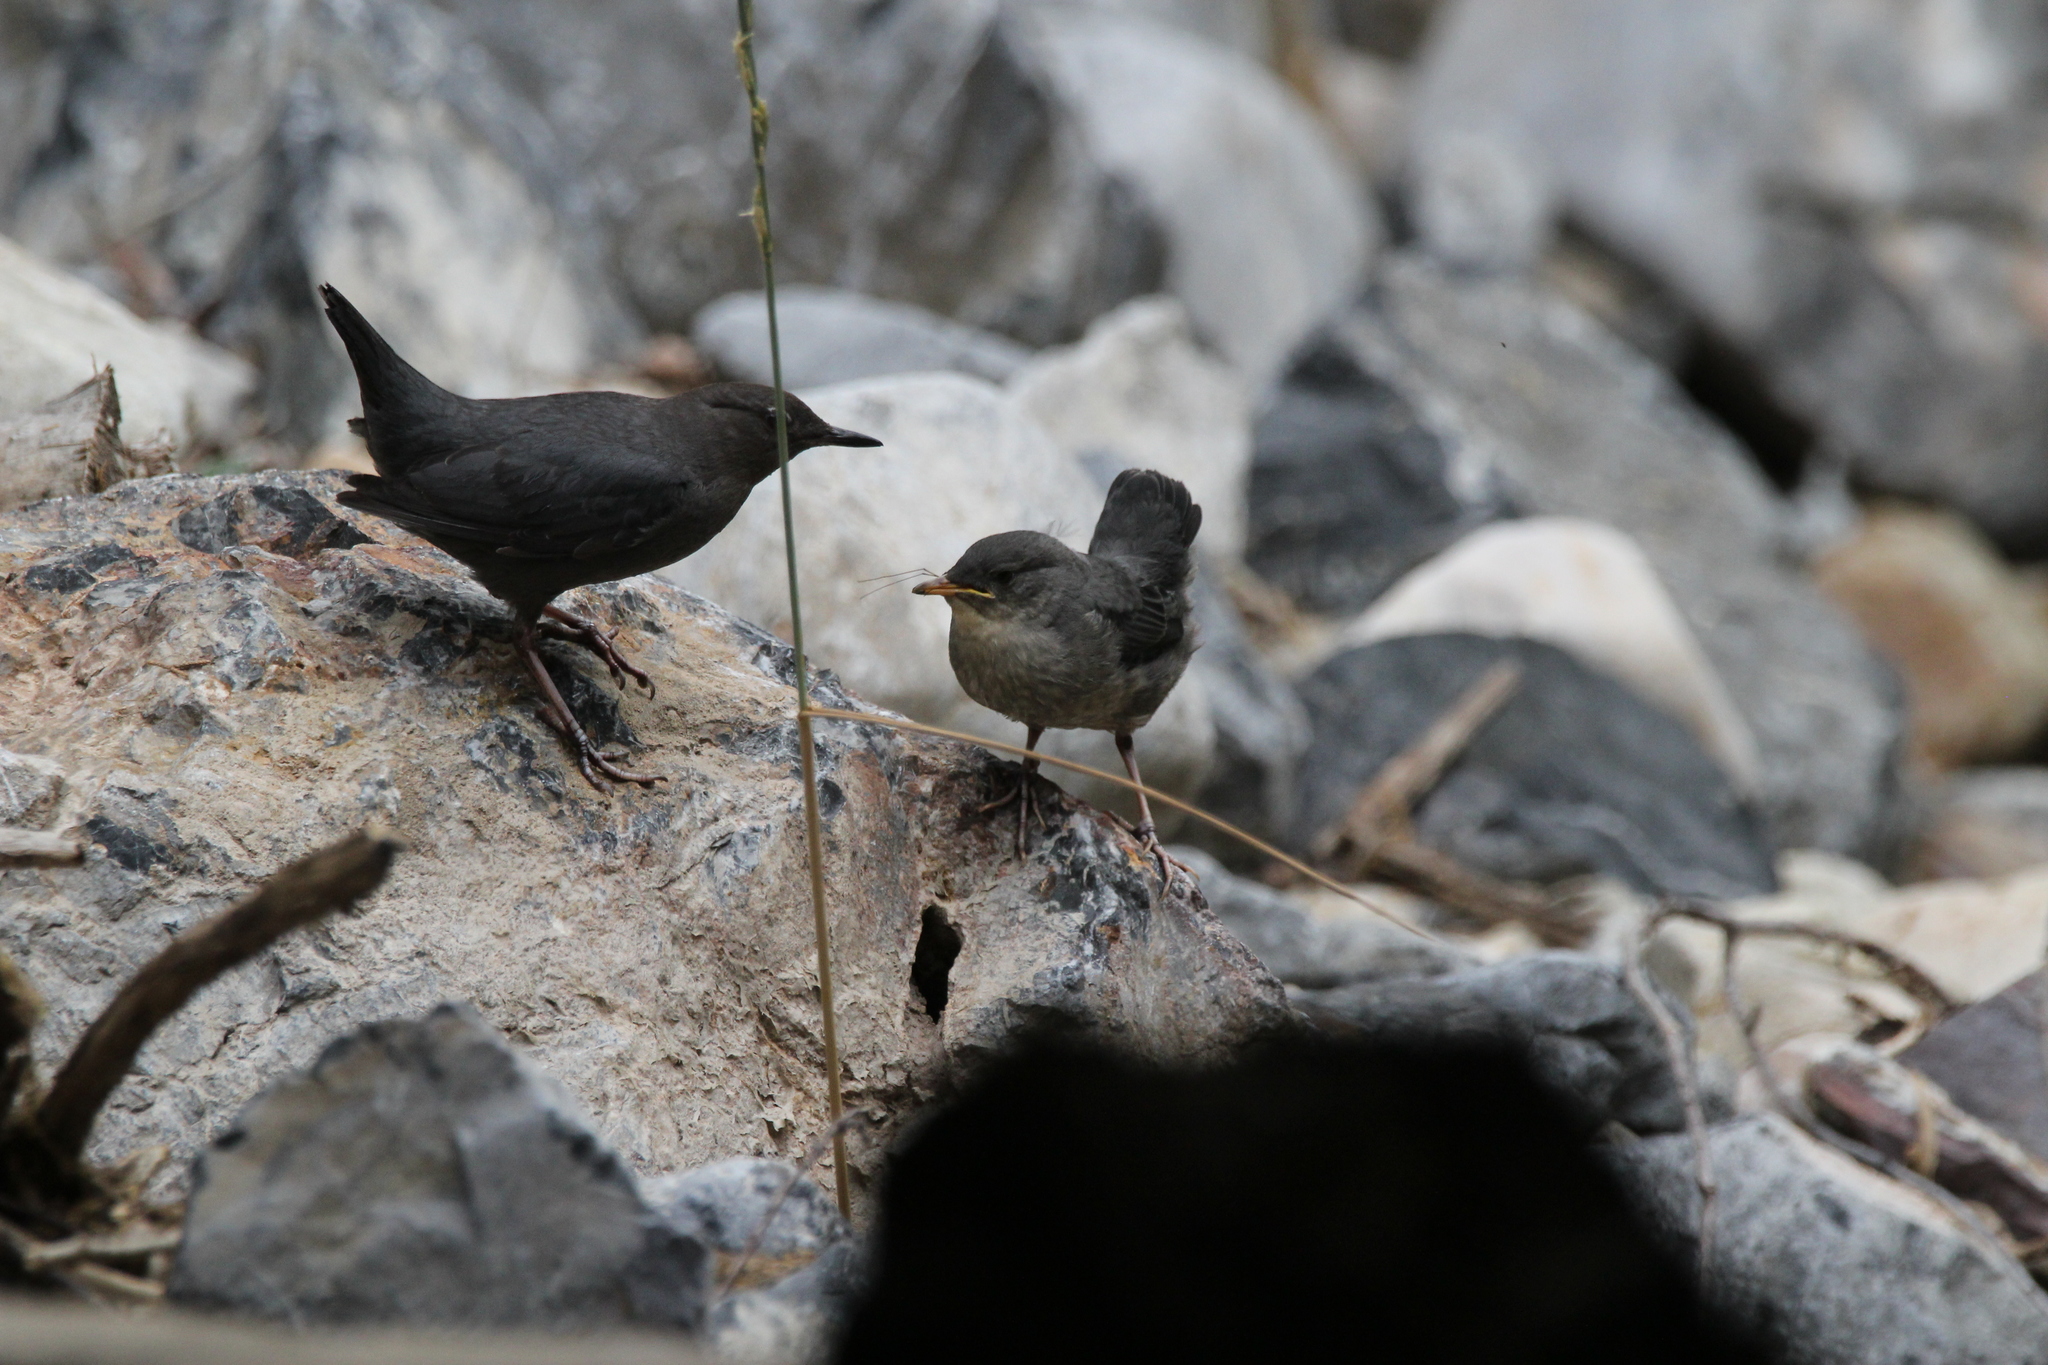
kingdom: Animalia
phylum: Chordata
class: Aves
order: Passeriformes
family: Cinclidae
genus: Cinclus
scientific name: Cinclus mexicanus
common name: American dipper
